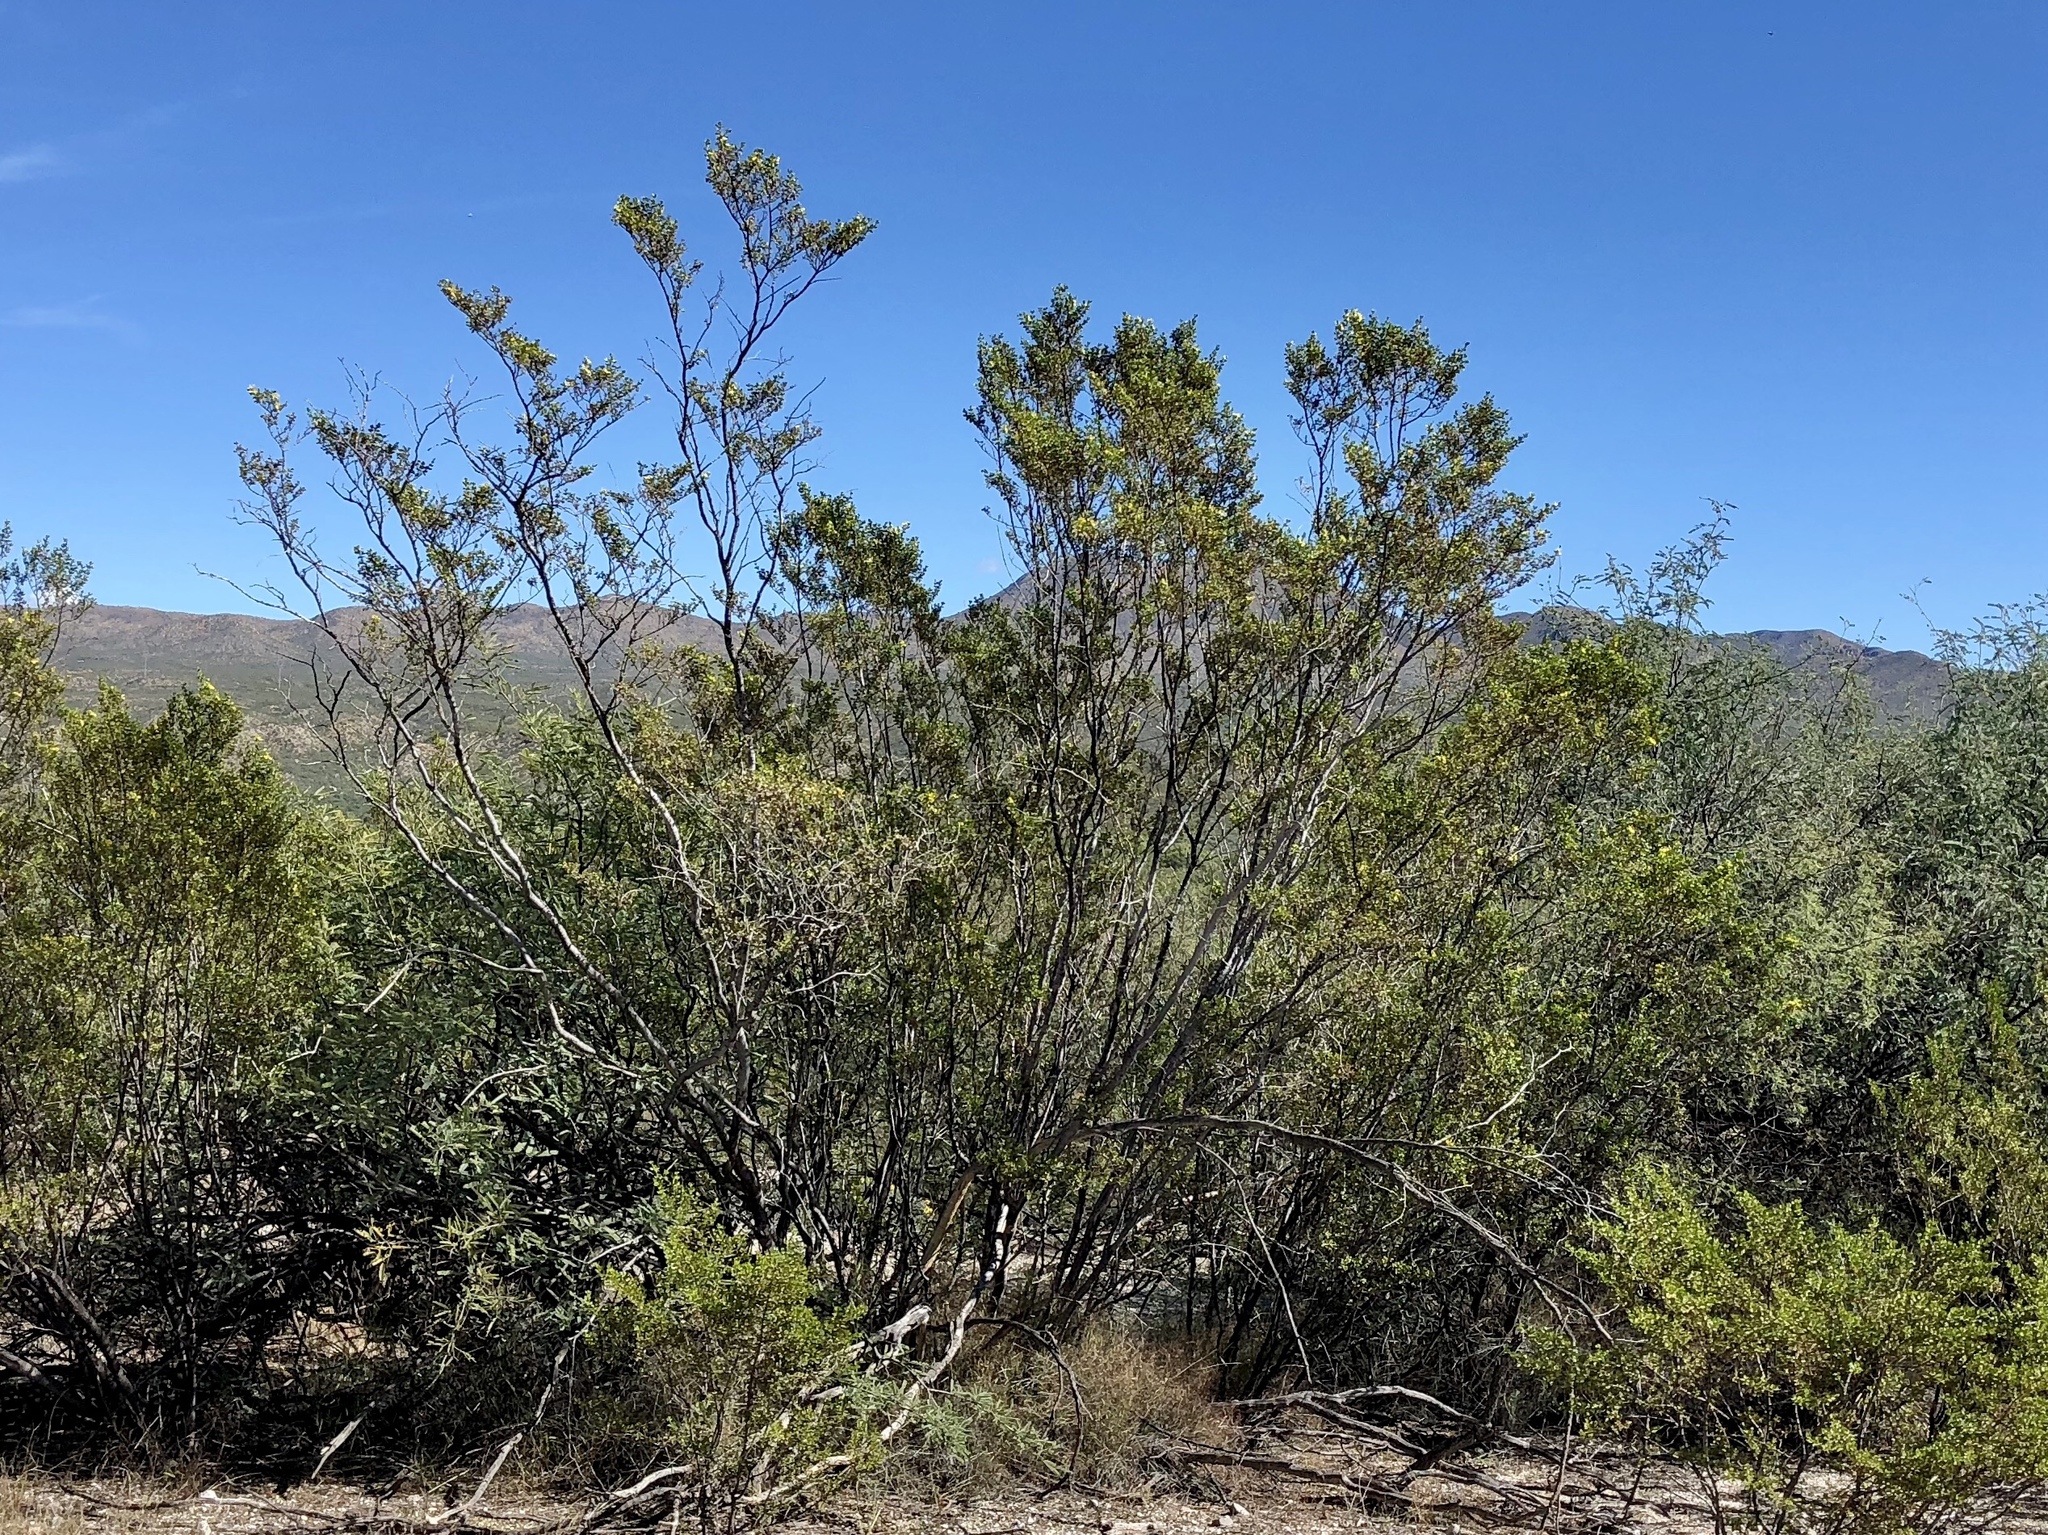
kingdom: Plantae
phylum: Tracheophyta
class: Magnoliopsida
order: Zygophyllales
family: Zygophyllaceae
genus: Larrea
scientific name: Larrea tridentata
